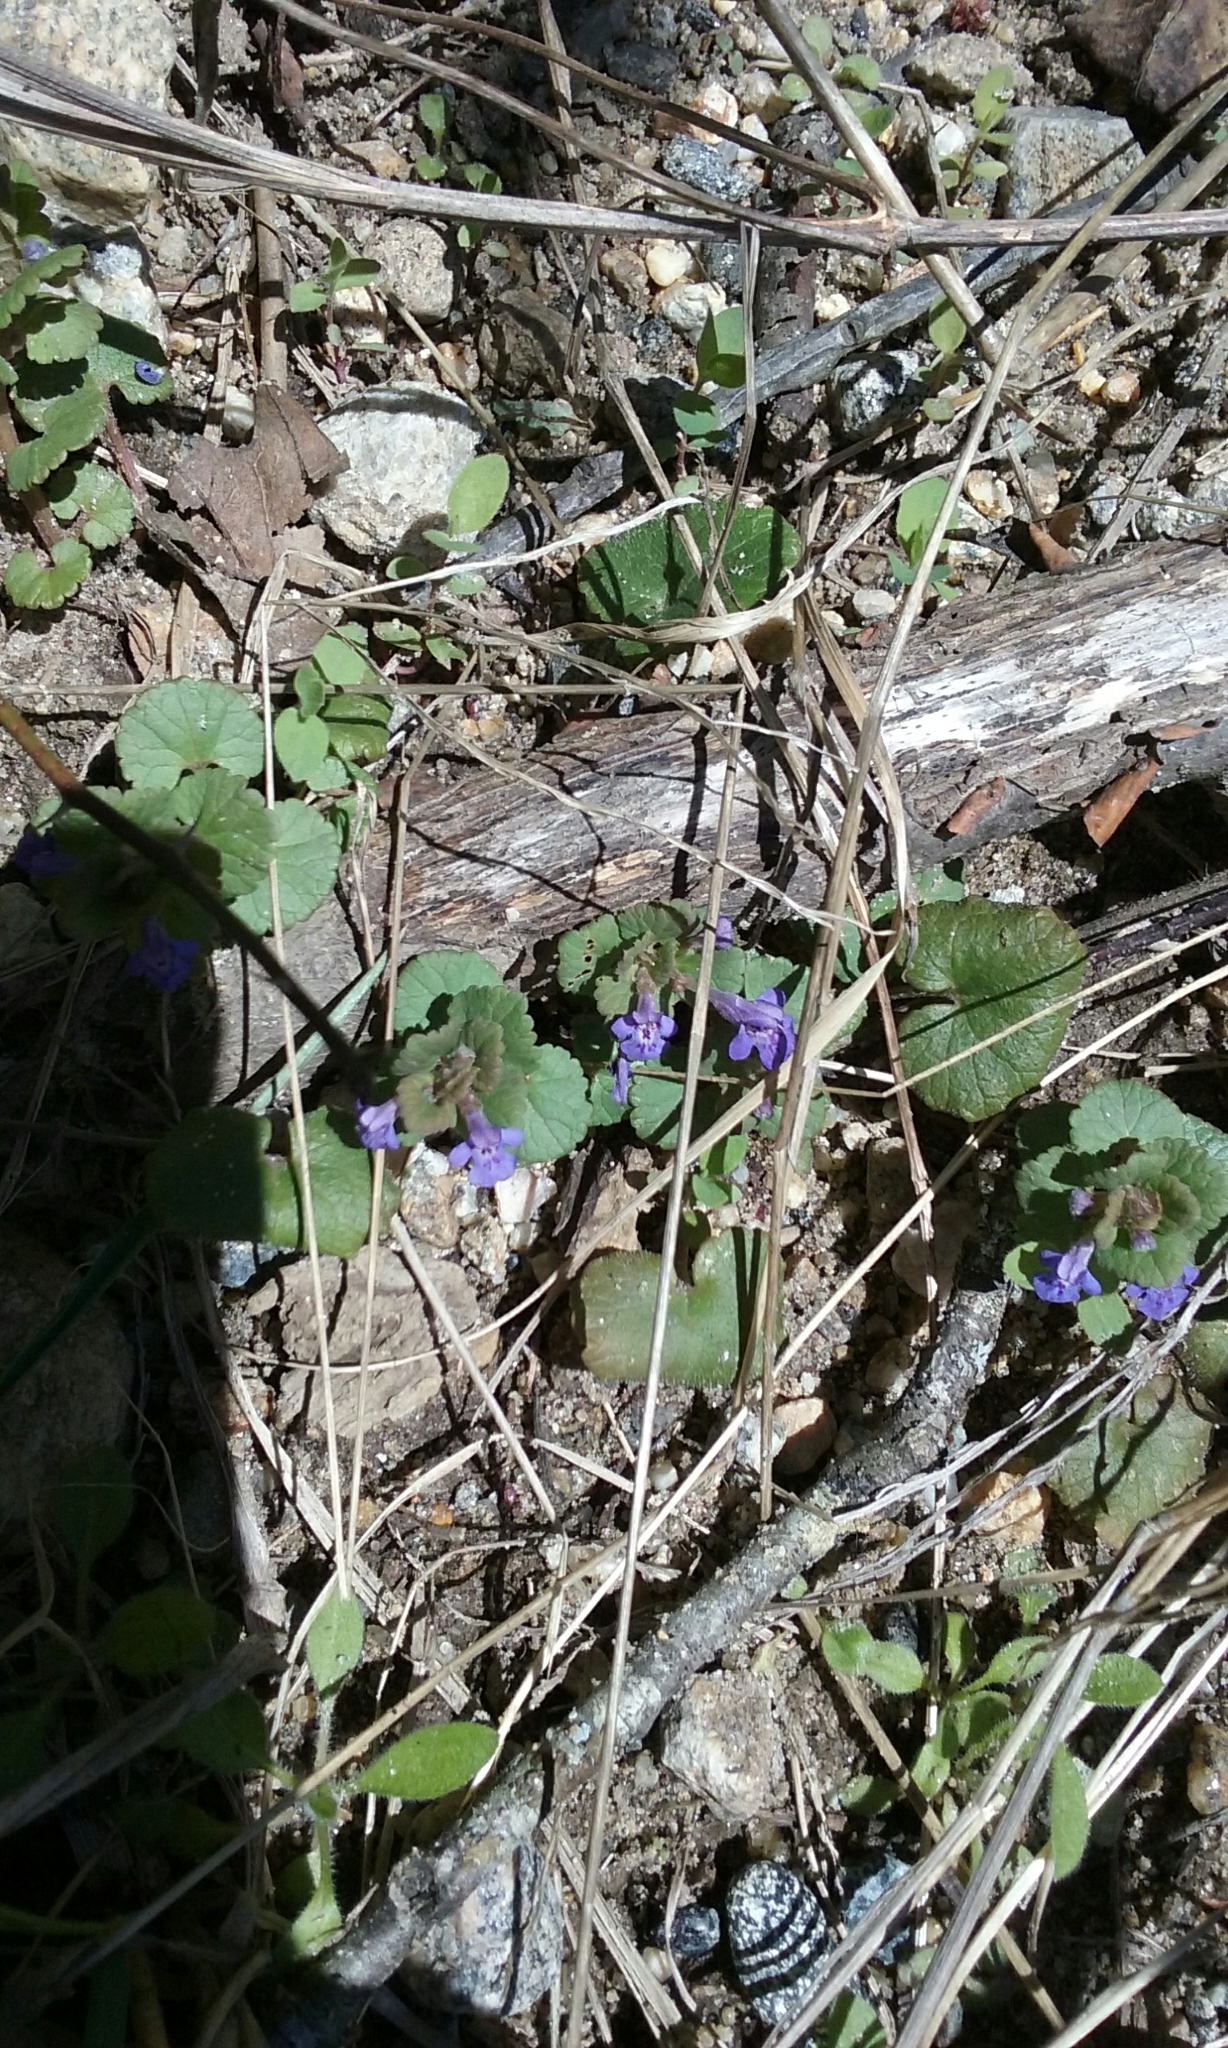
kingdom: Plantae
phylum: Tracheophyta
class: Magnoliopsida
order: Lamiales
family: Lamiaceae
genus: Glechoma
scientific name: Glechoma hederacea
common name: Ground ivy
